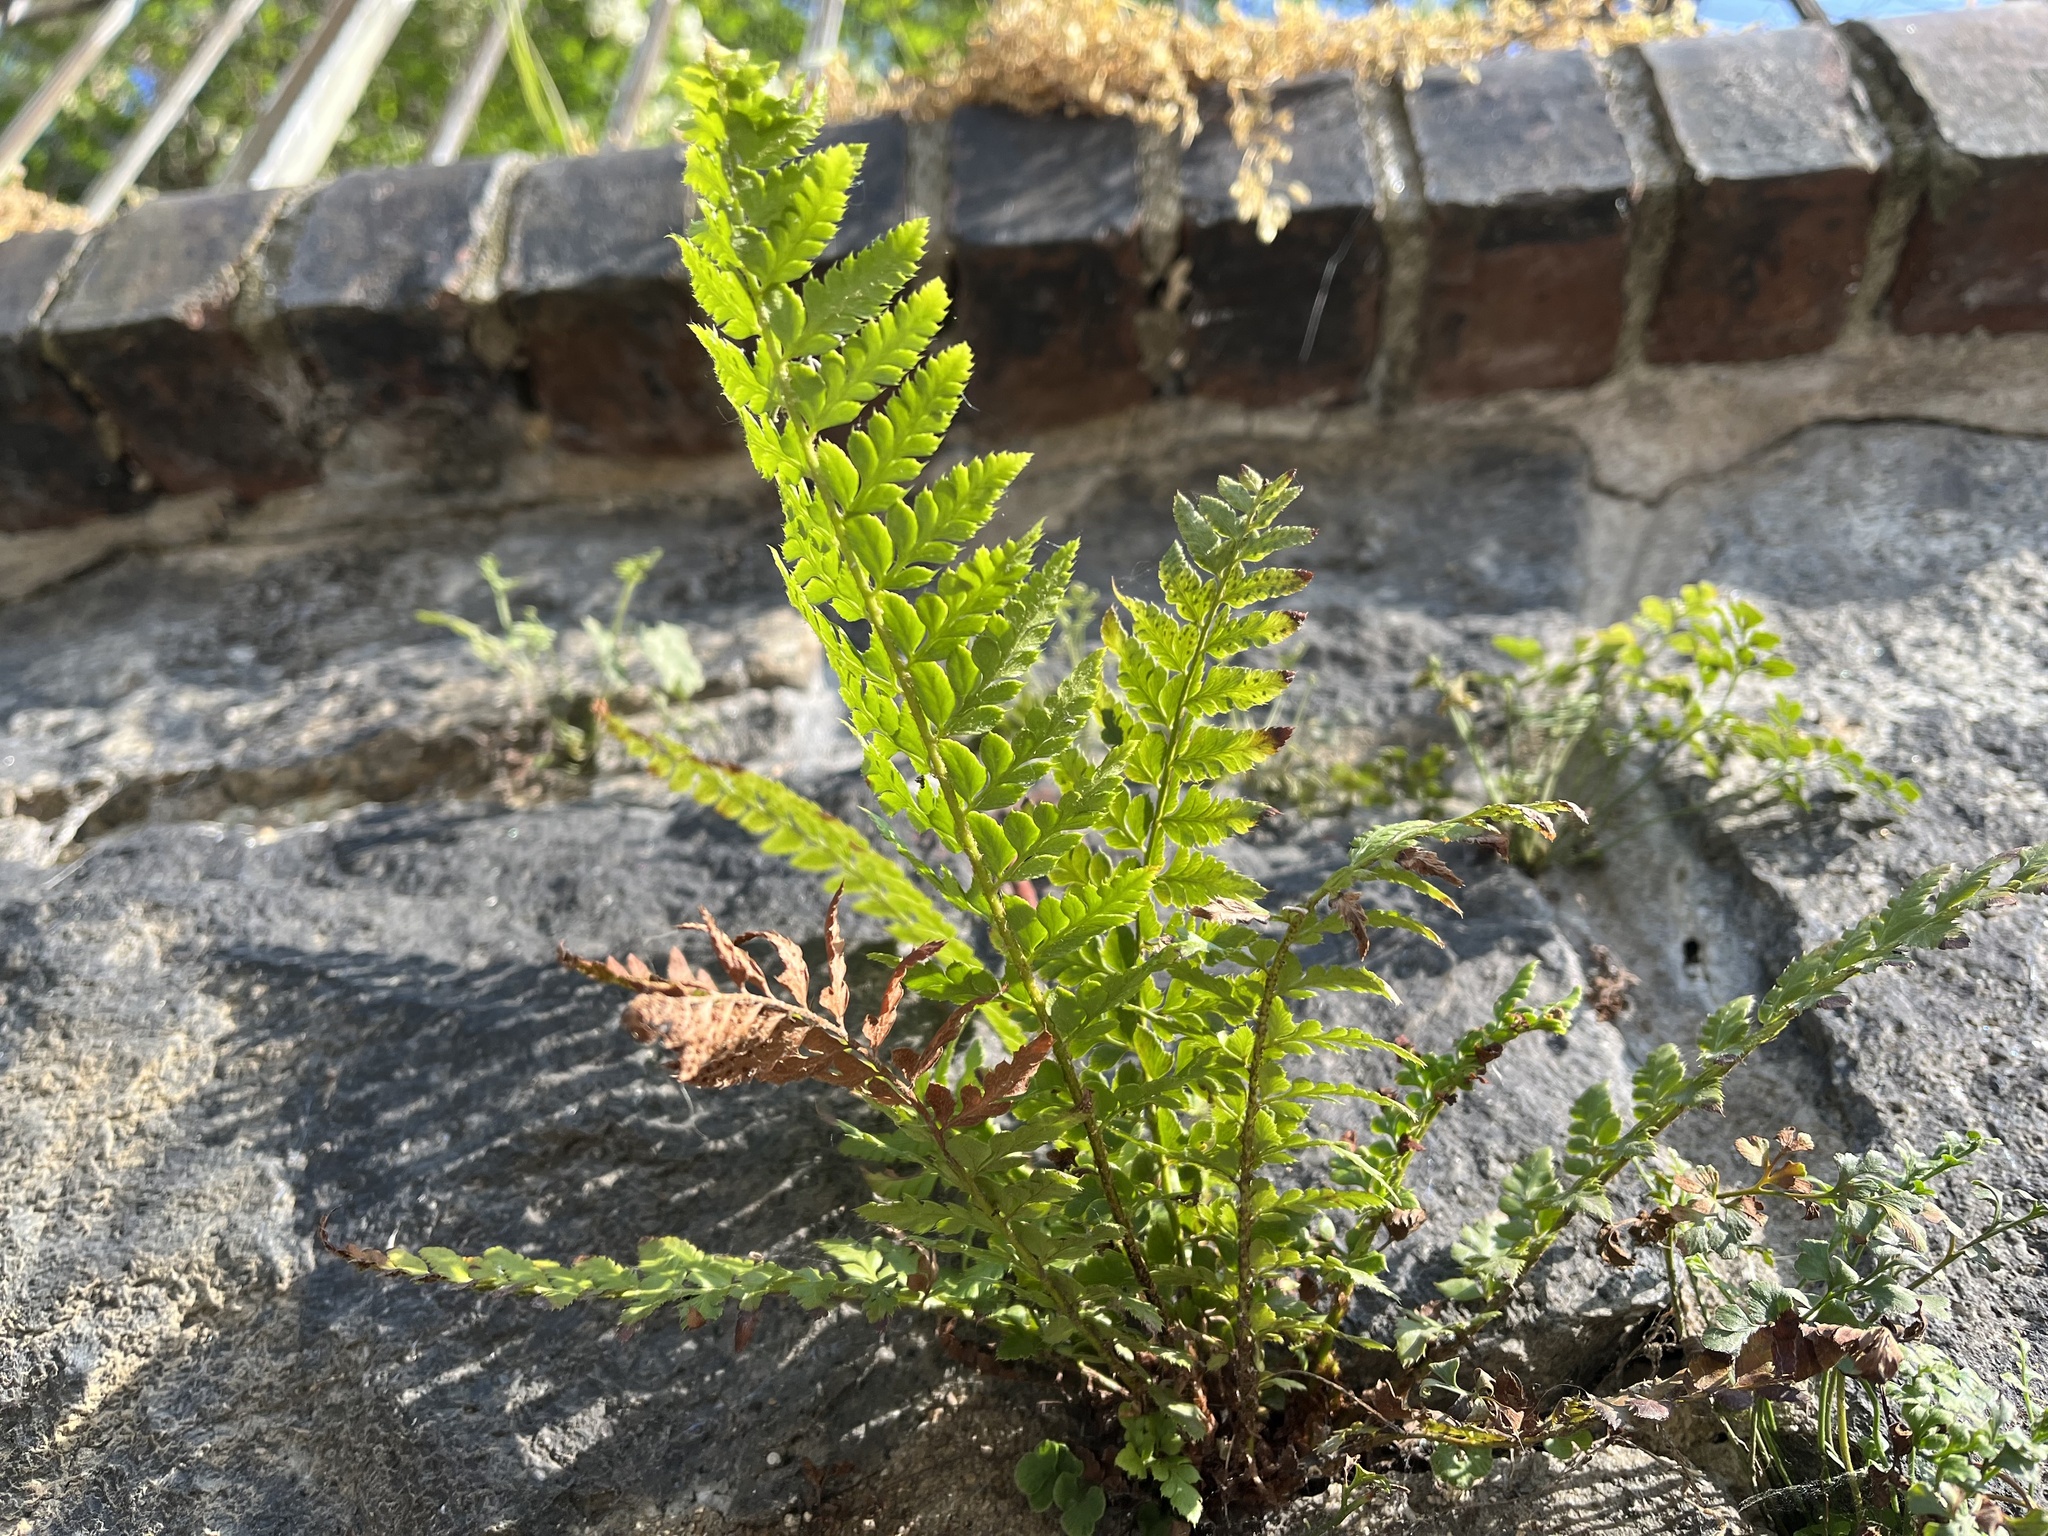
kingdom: Plantae
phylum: Tracheophyta
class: Polypodiopsida
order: Polypodiales
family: Dryopteridaceae
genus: Polystichum
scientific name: Polystichum aculeatum
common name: Hard shield-fern
